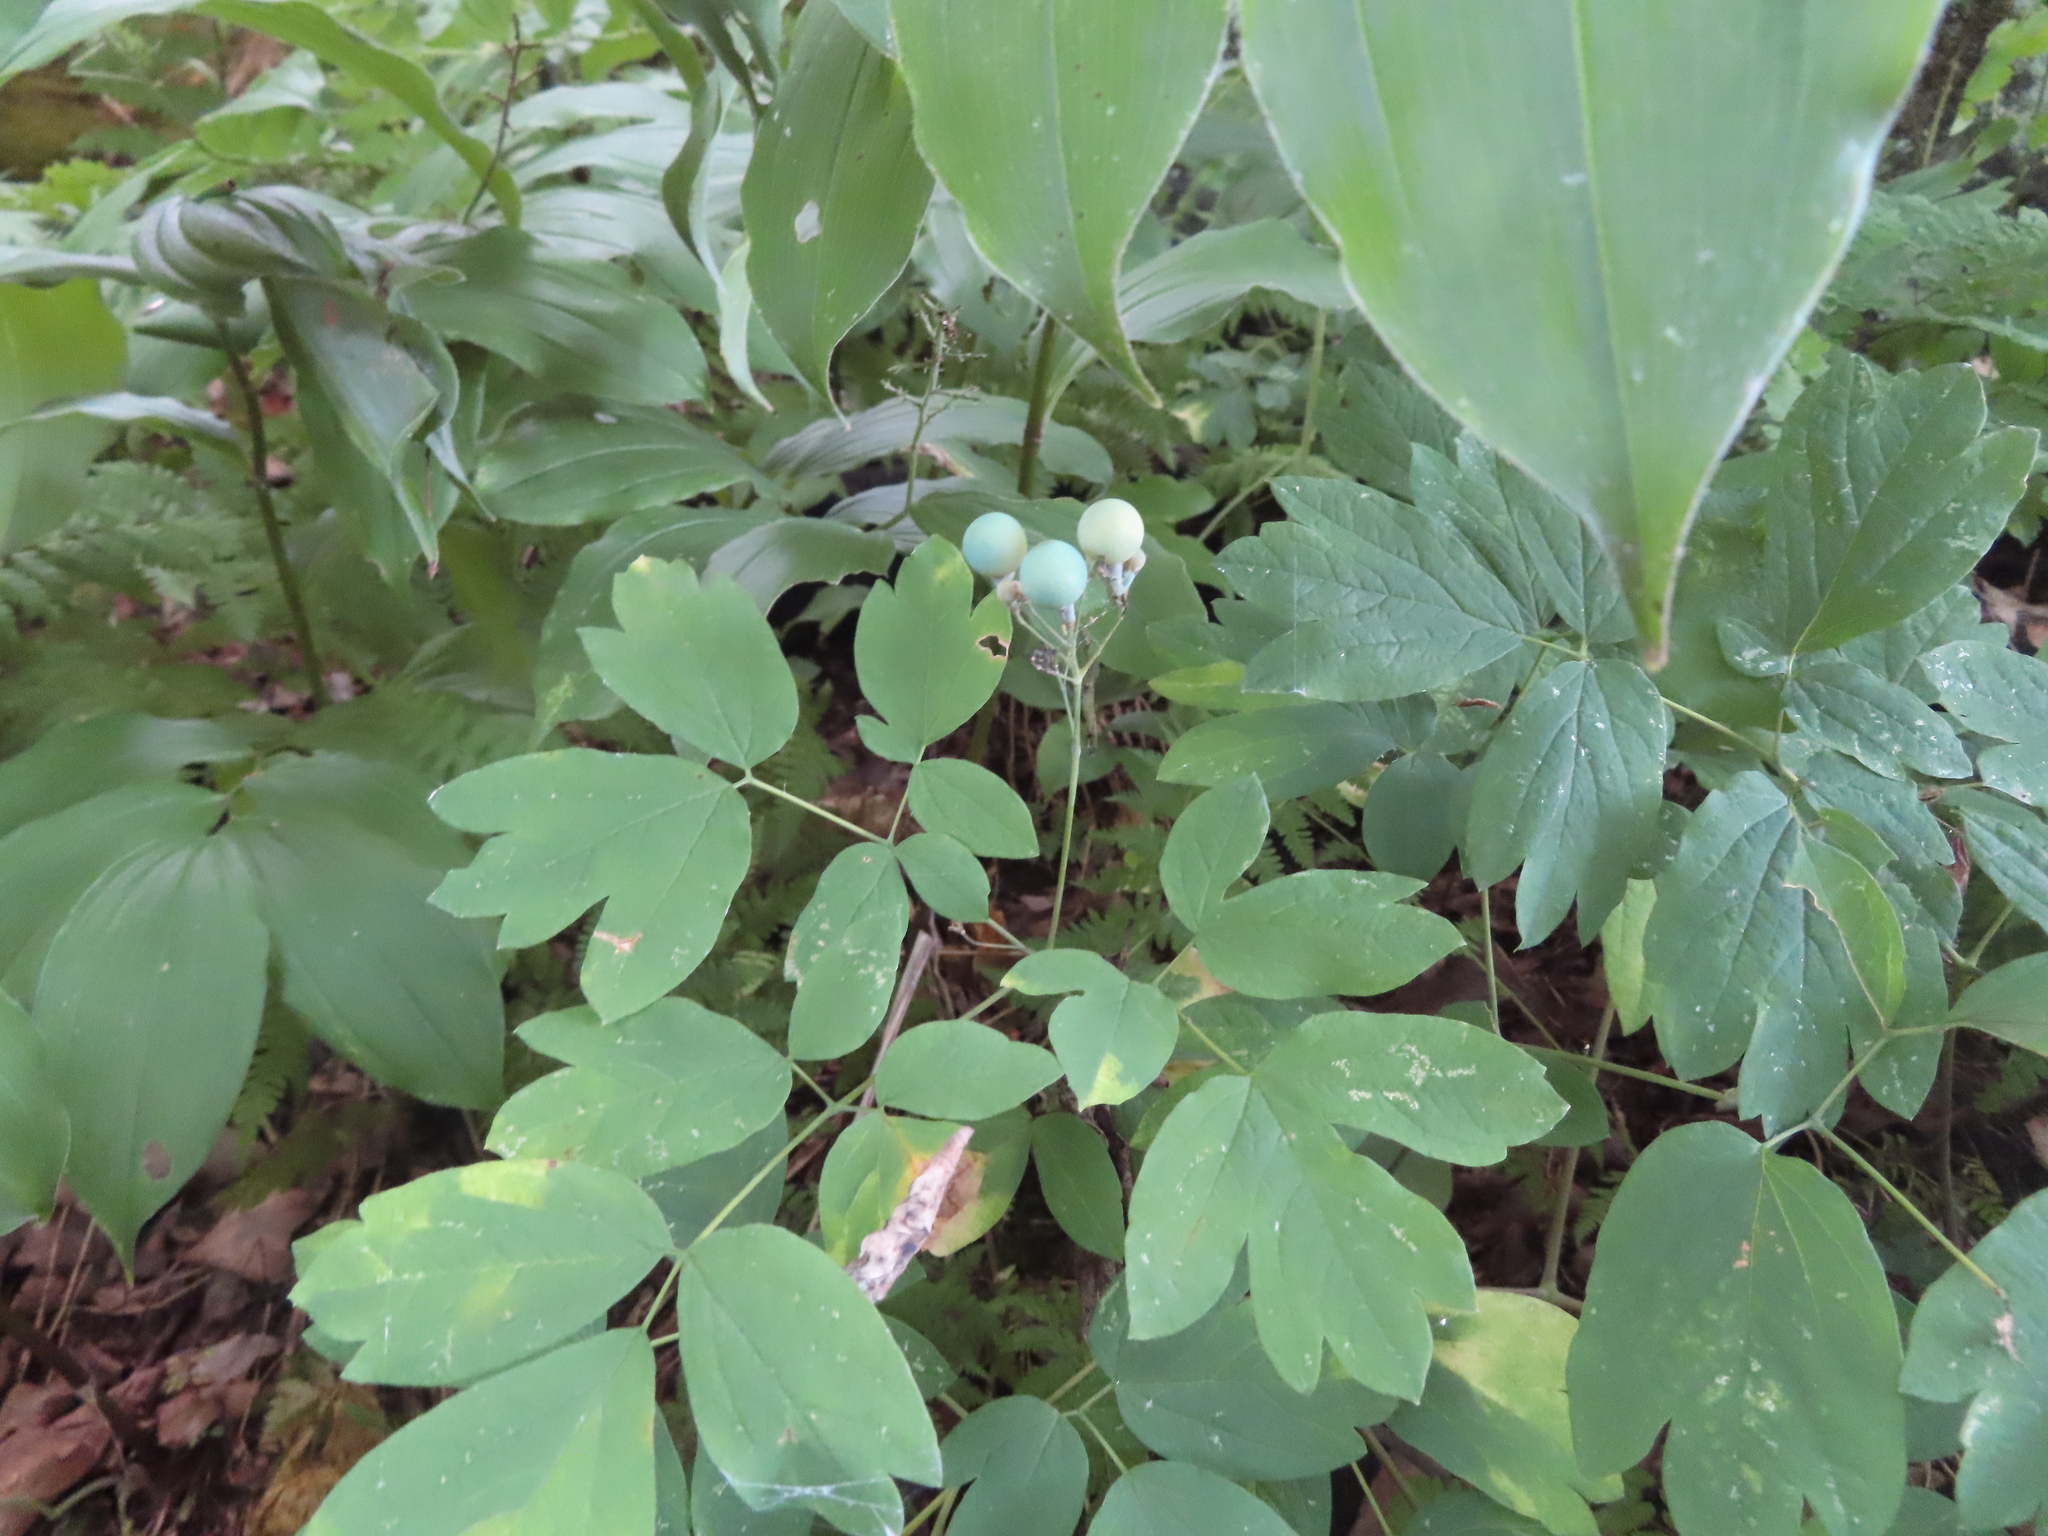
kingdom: Plantae
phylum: Tracheophyta
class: Magnoliopsida
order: Ranunculales
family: Berberidaceae
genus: Caulophyllum
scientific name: Caulophyllum thalictroides
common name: Blue cohosh
